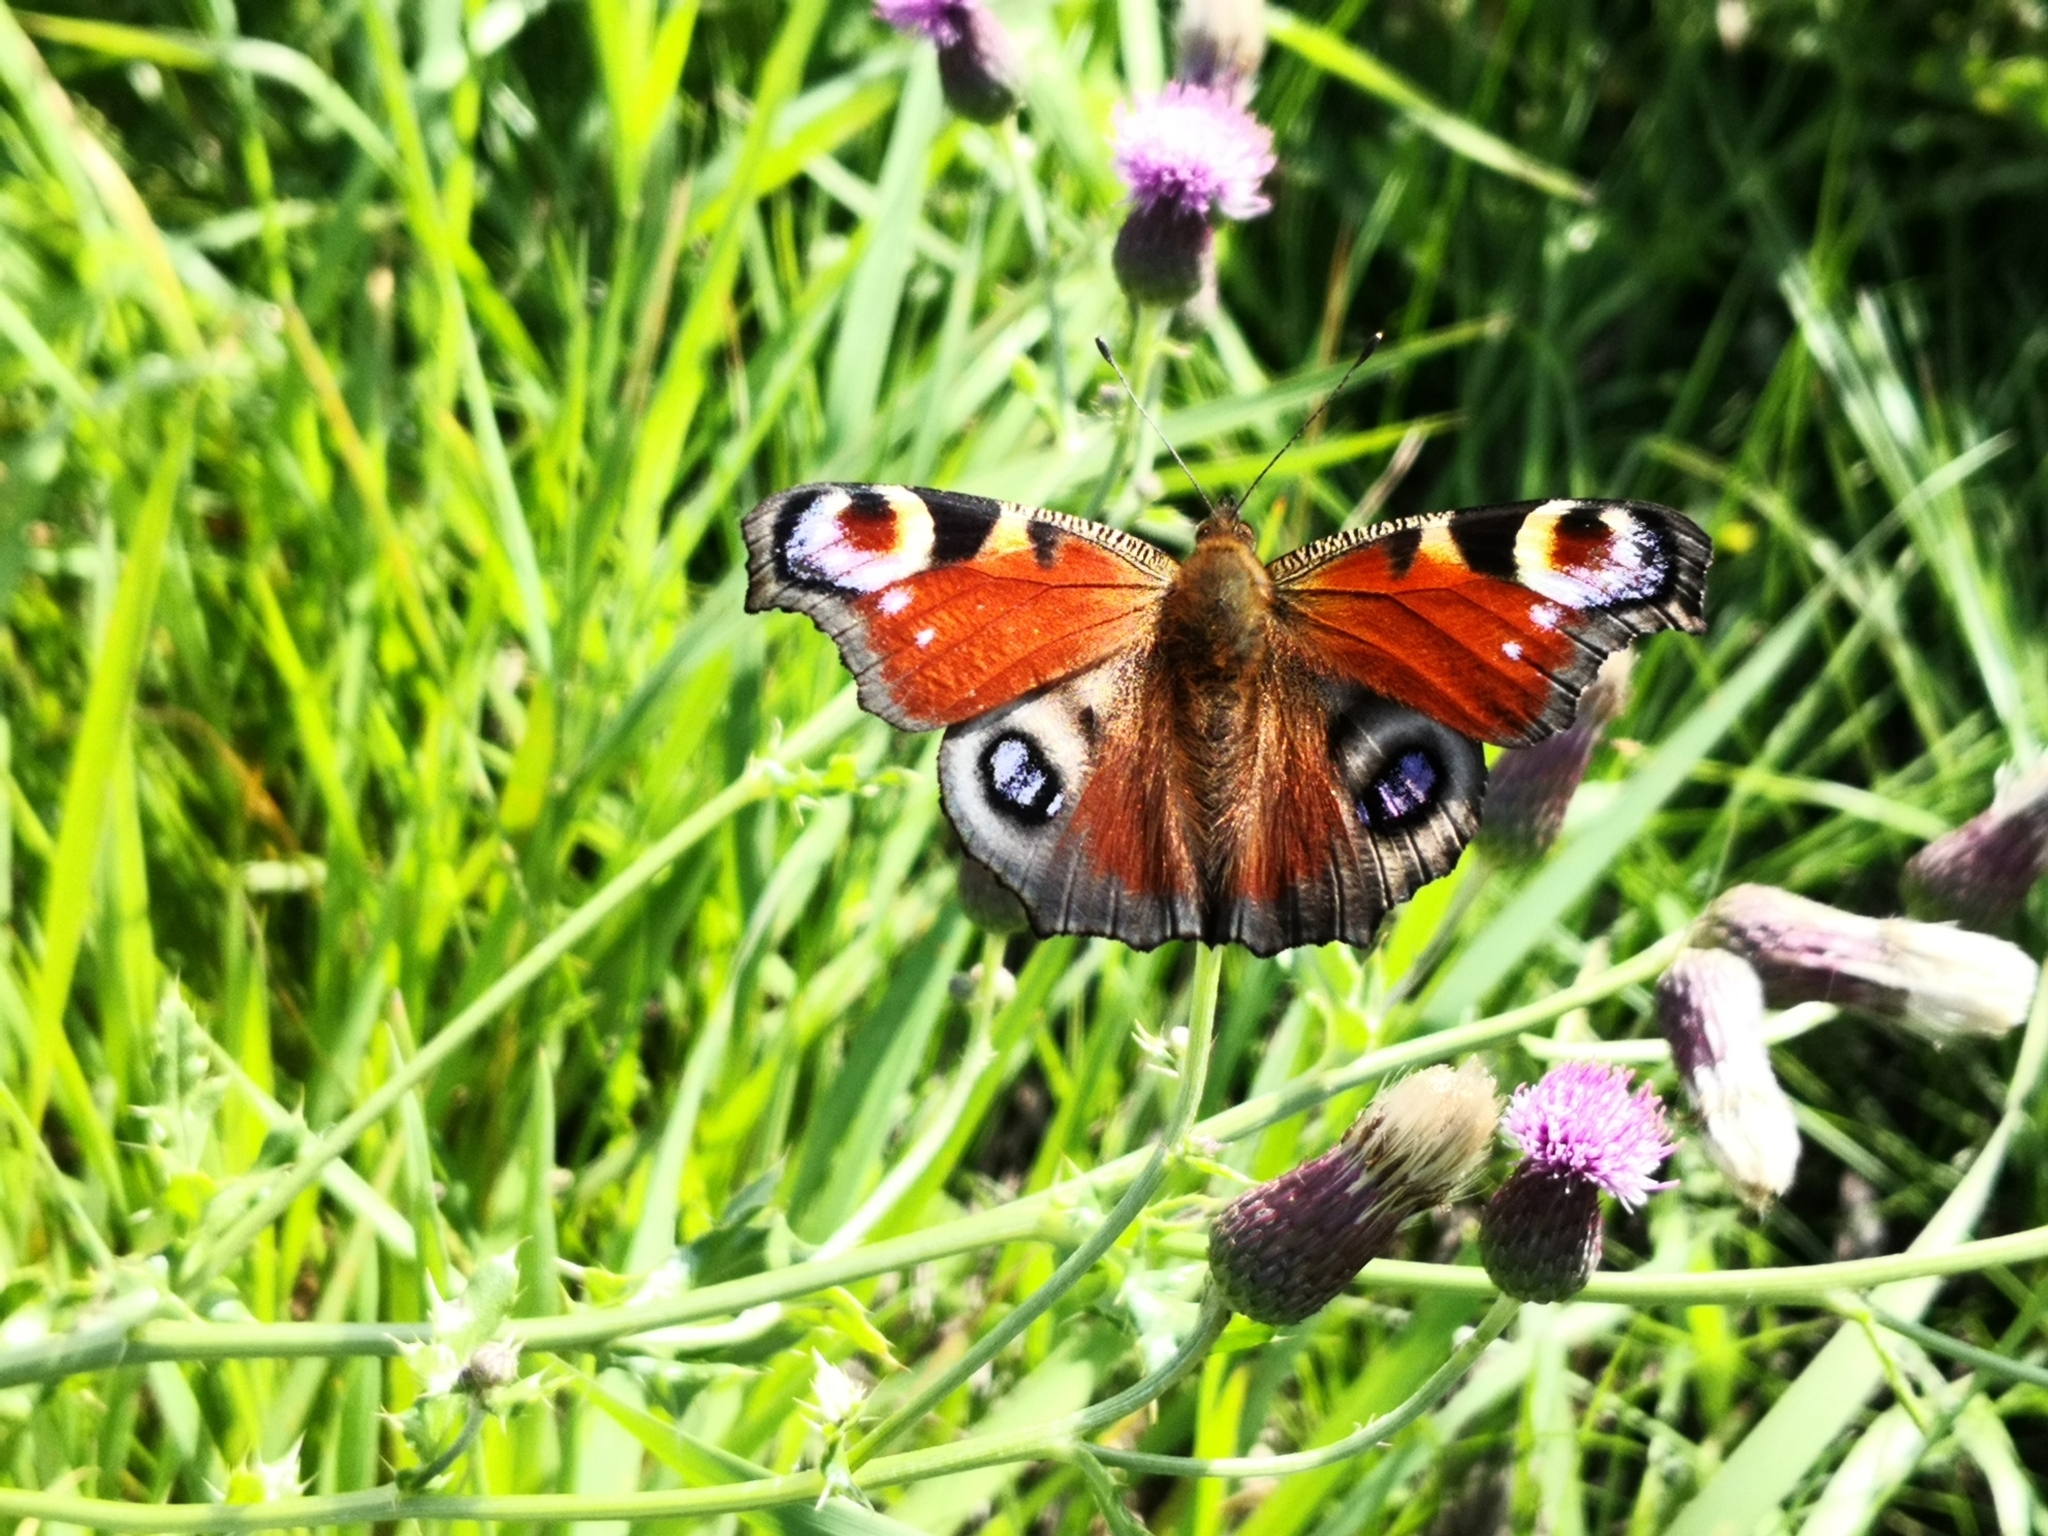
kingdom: Animalia
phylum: Arthropoda
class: Insecta
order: Lepidoptera
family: Nymphalidae
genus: Aglais
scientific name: Aglais io
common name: Peacock
